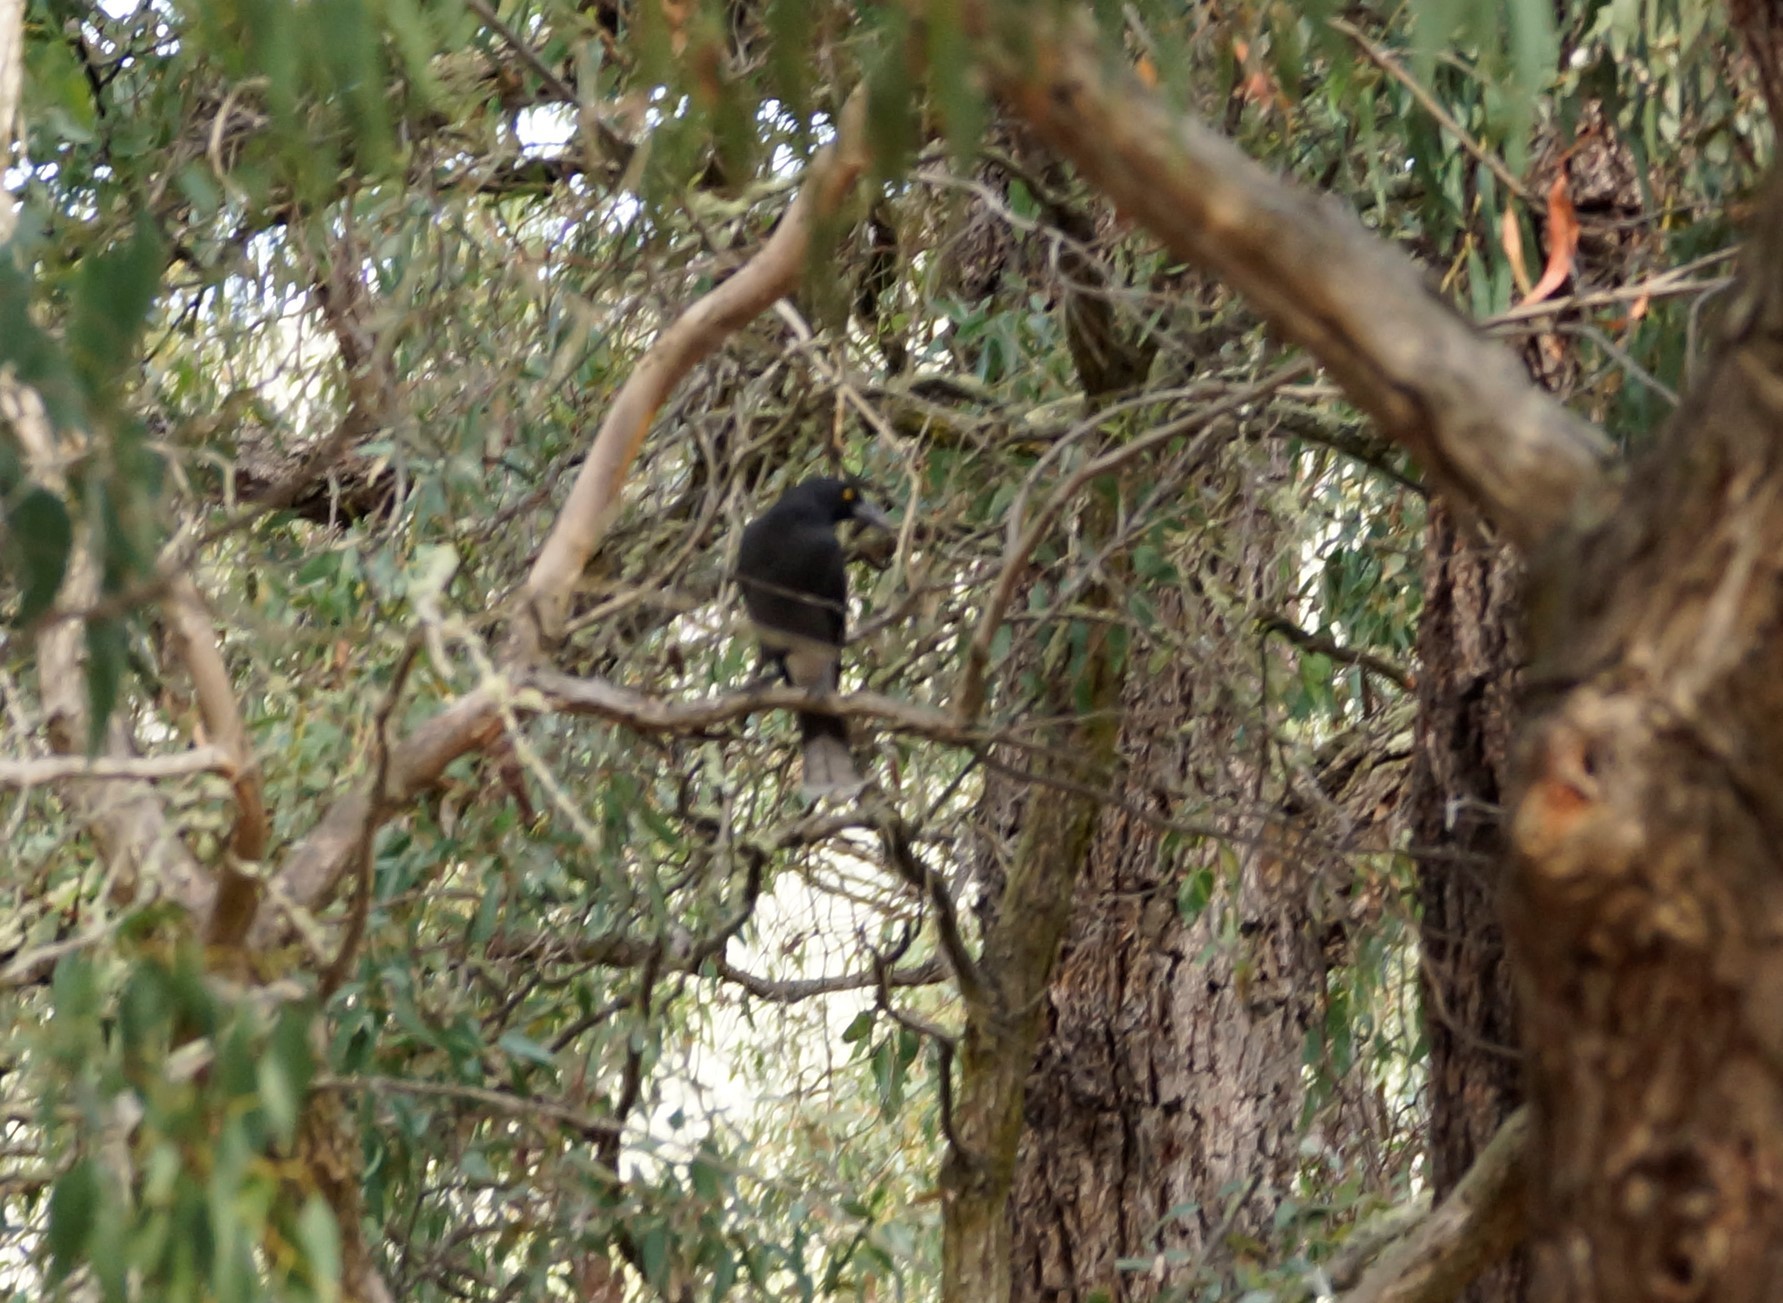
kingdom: Animalia
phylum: Chordata
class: Aves
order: Passeriformes
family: Cracticidae
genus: Strepera
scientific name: Strepera graculina
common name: Pied currawong
